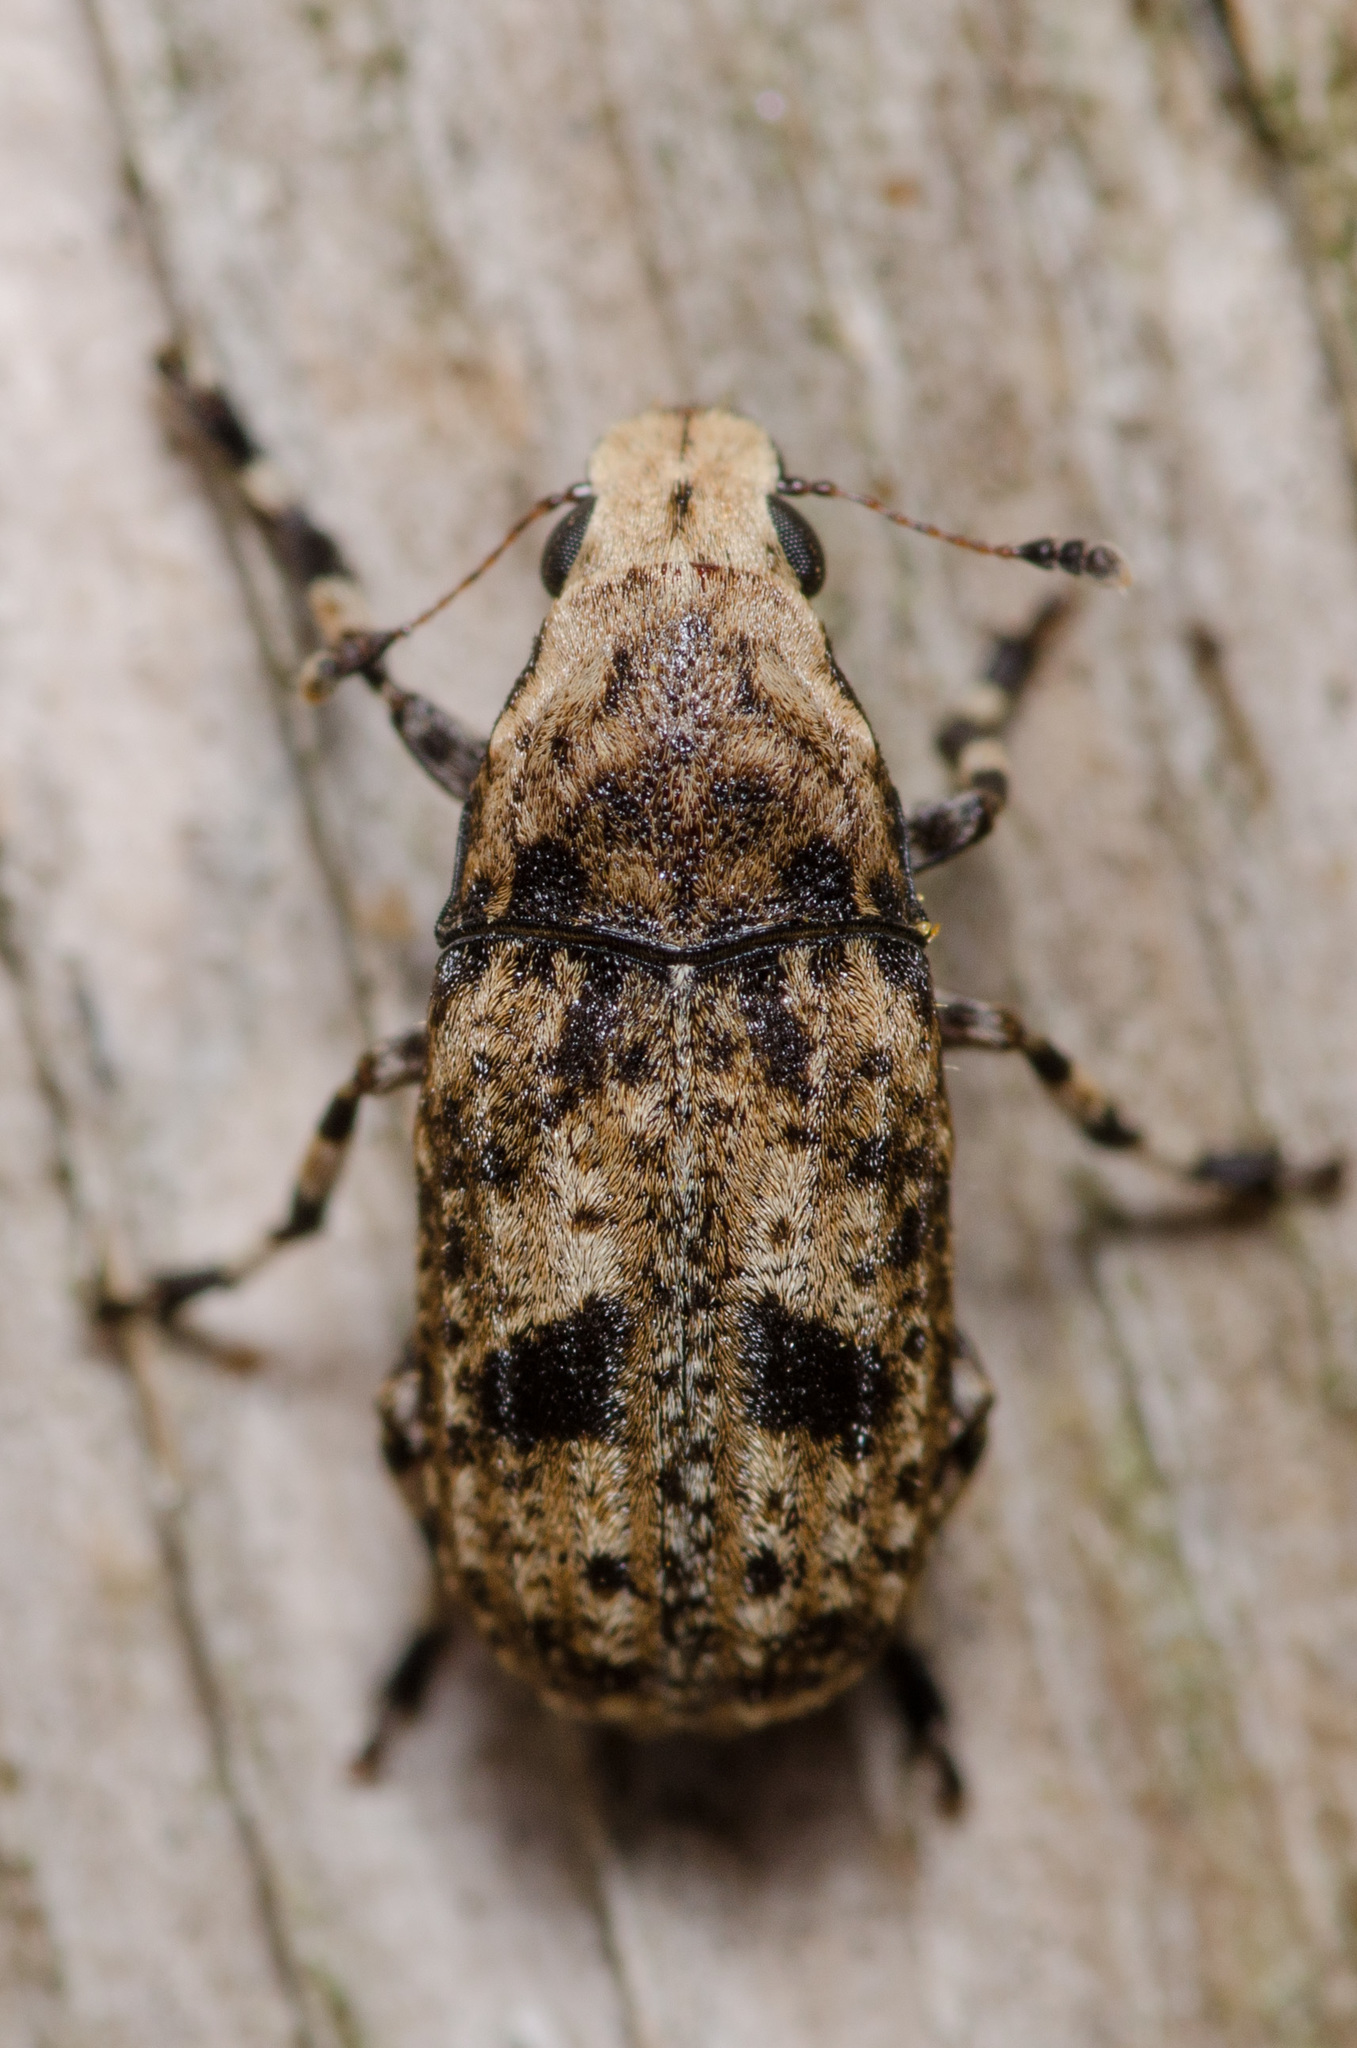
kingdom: Animalia
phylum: Arthropoda
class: Insecta
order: Coleoptera
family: Anthribidae
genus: Euparius
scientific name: Euparius marmoreus
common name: Marbled fungus weevil
